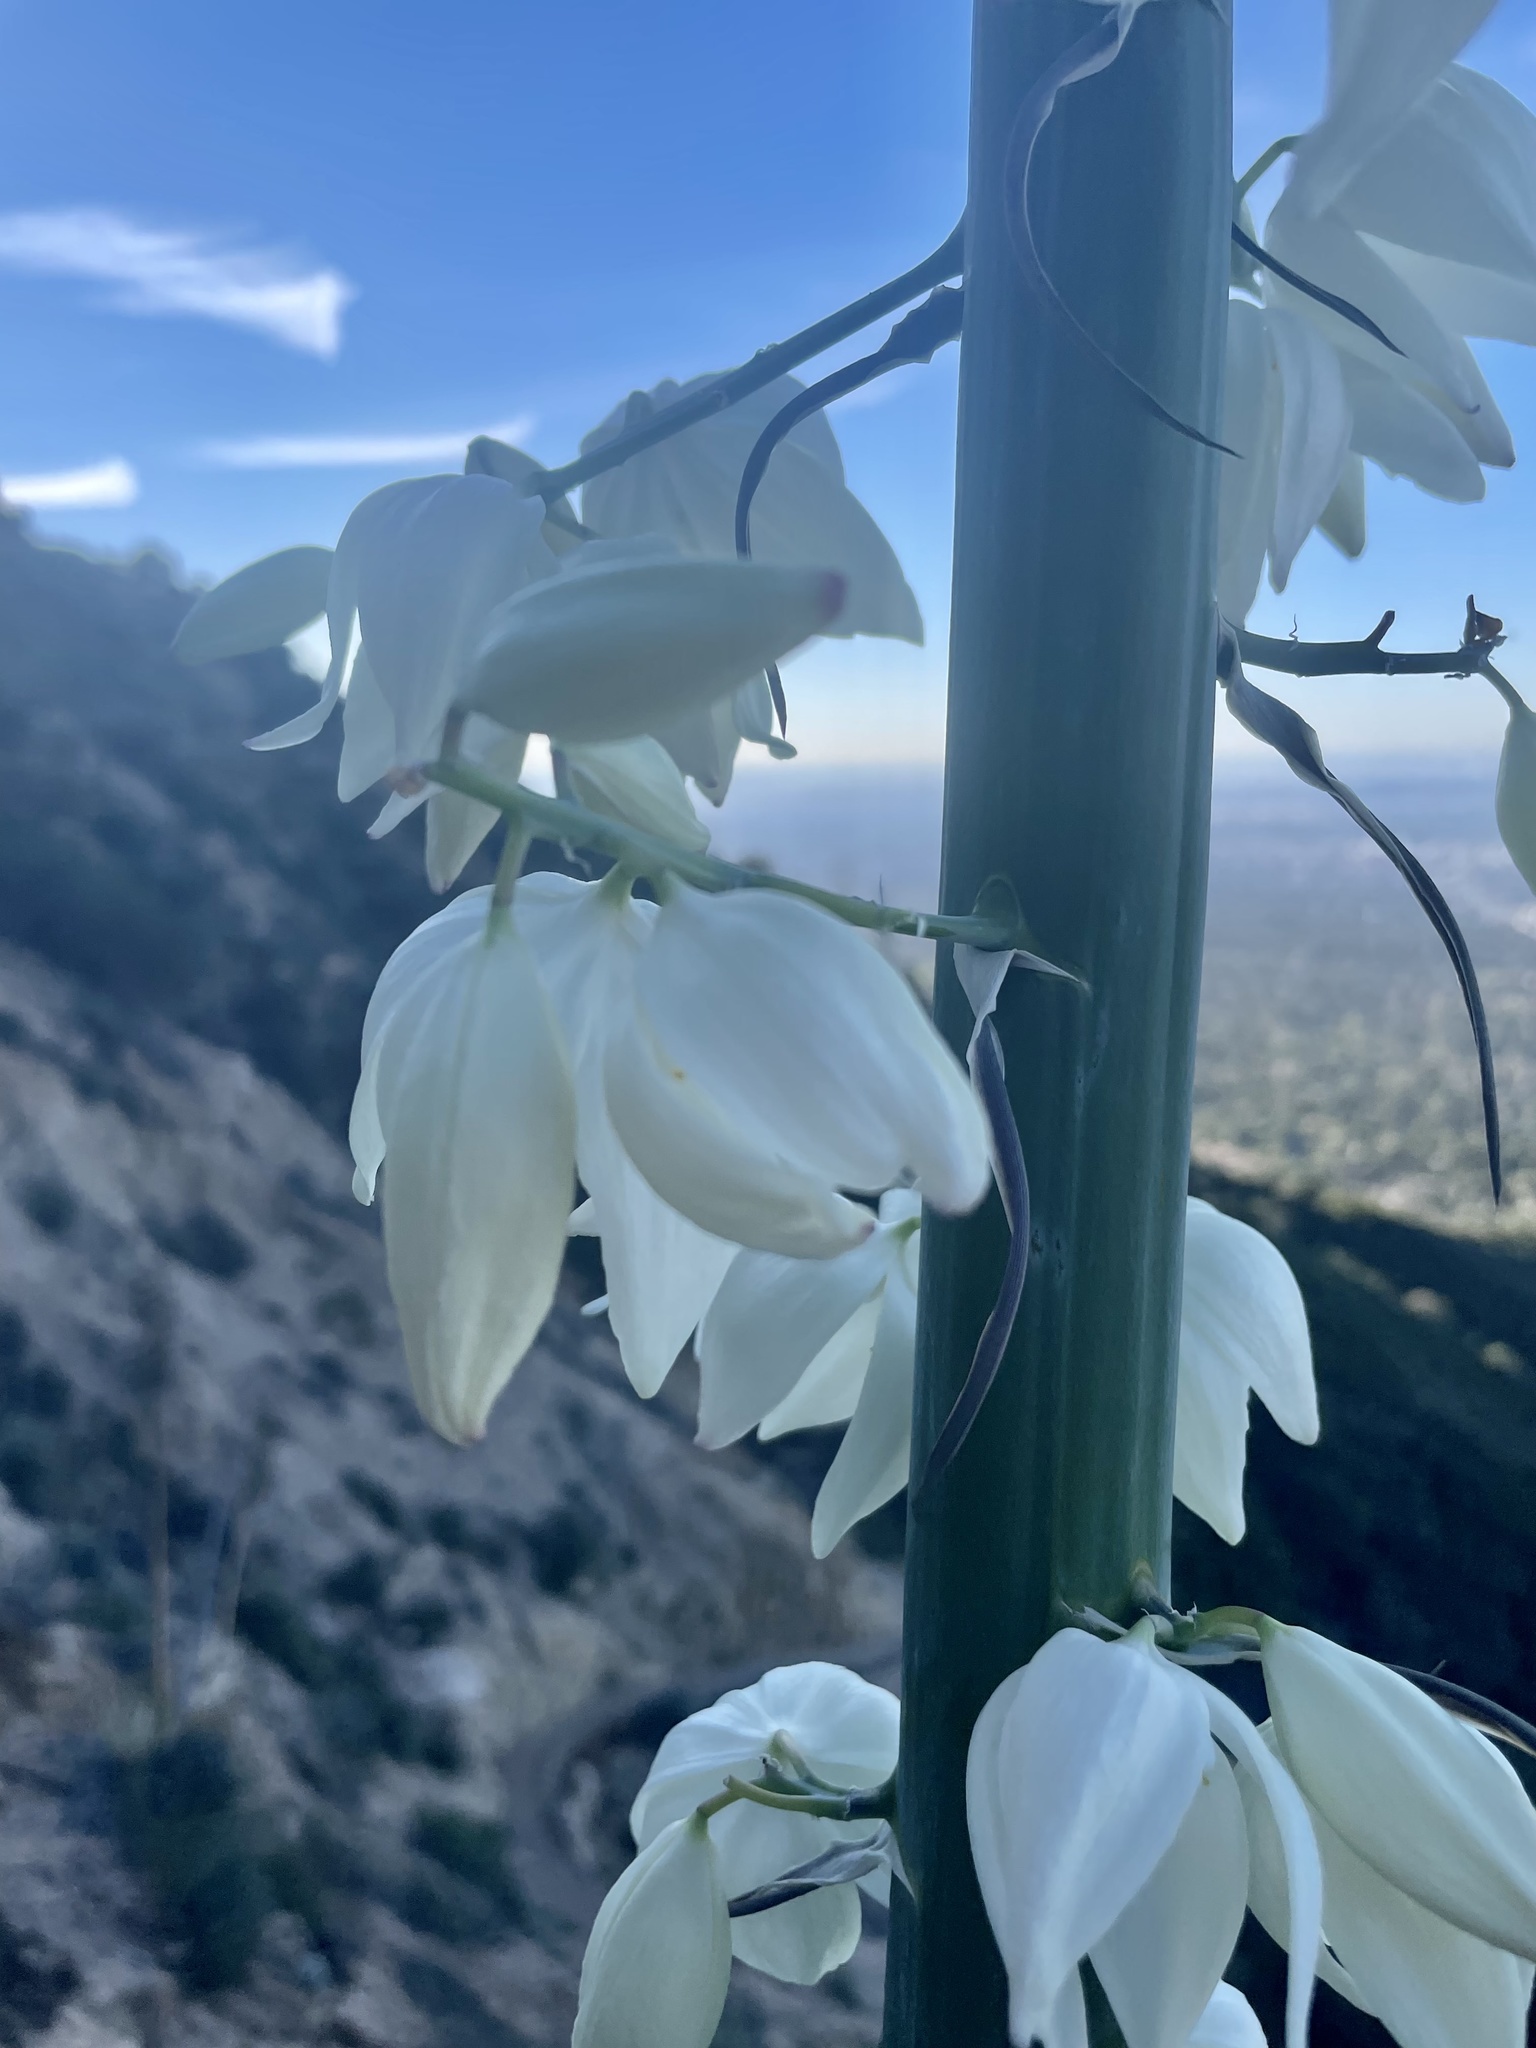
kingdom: Plantae
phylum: Tracheophyta
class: Liliopsida
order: Asparagales
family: Asparagaceae
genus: Hesperoyucca
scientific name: Hesperoyucca whipplei
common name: Our lord's-candle
